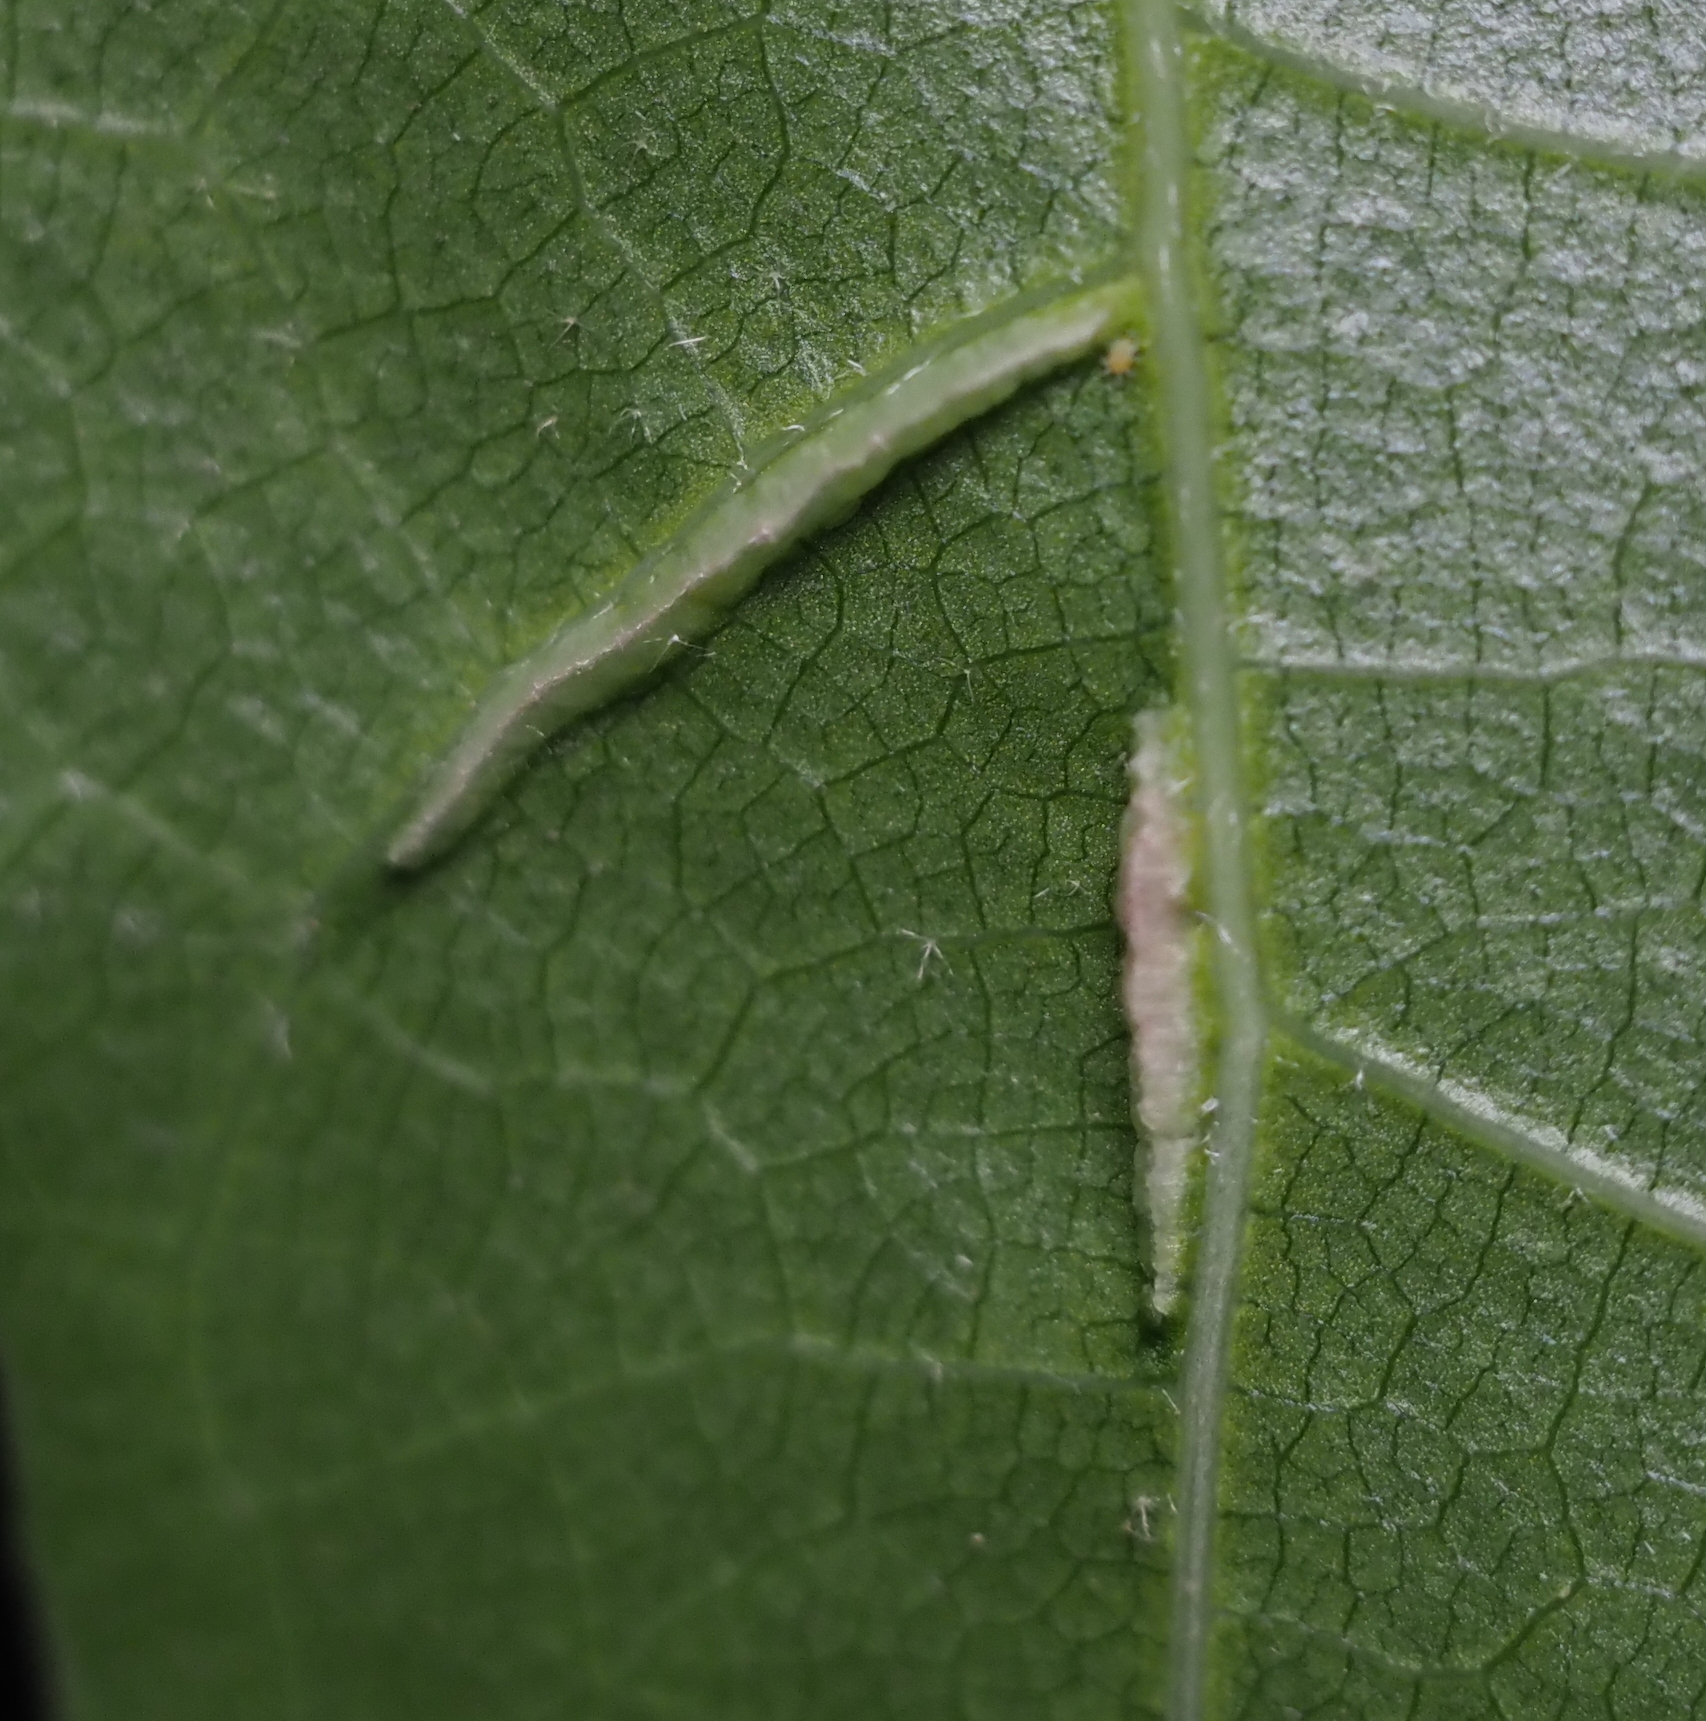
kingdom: Animalia
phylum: Arthropoda
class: Insecta
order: Diptera
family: Cecidomyiidae
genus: Macrodiplosis
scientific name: Macrodiplosis q-orucum
